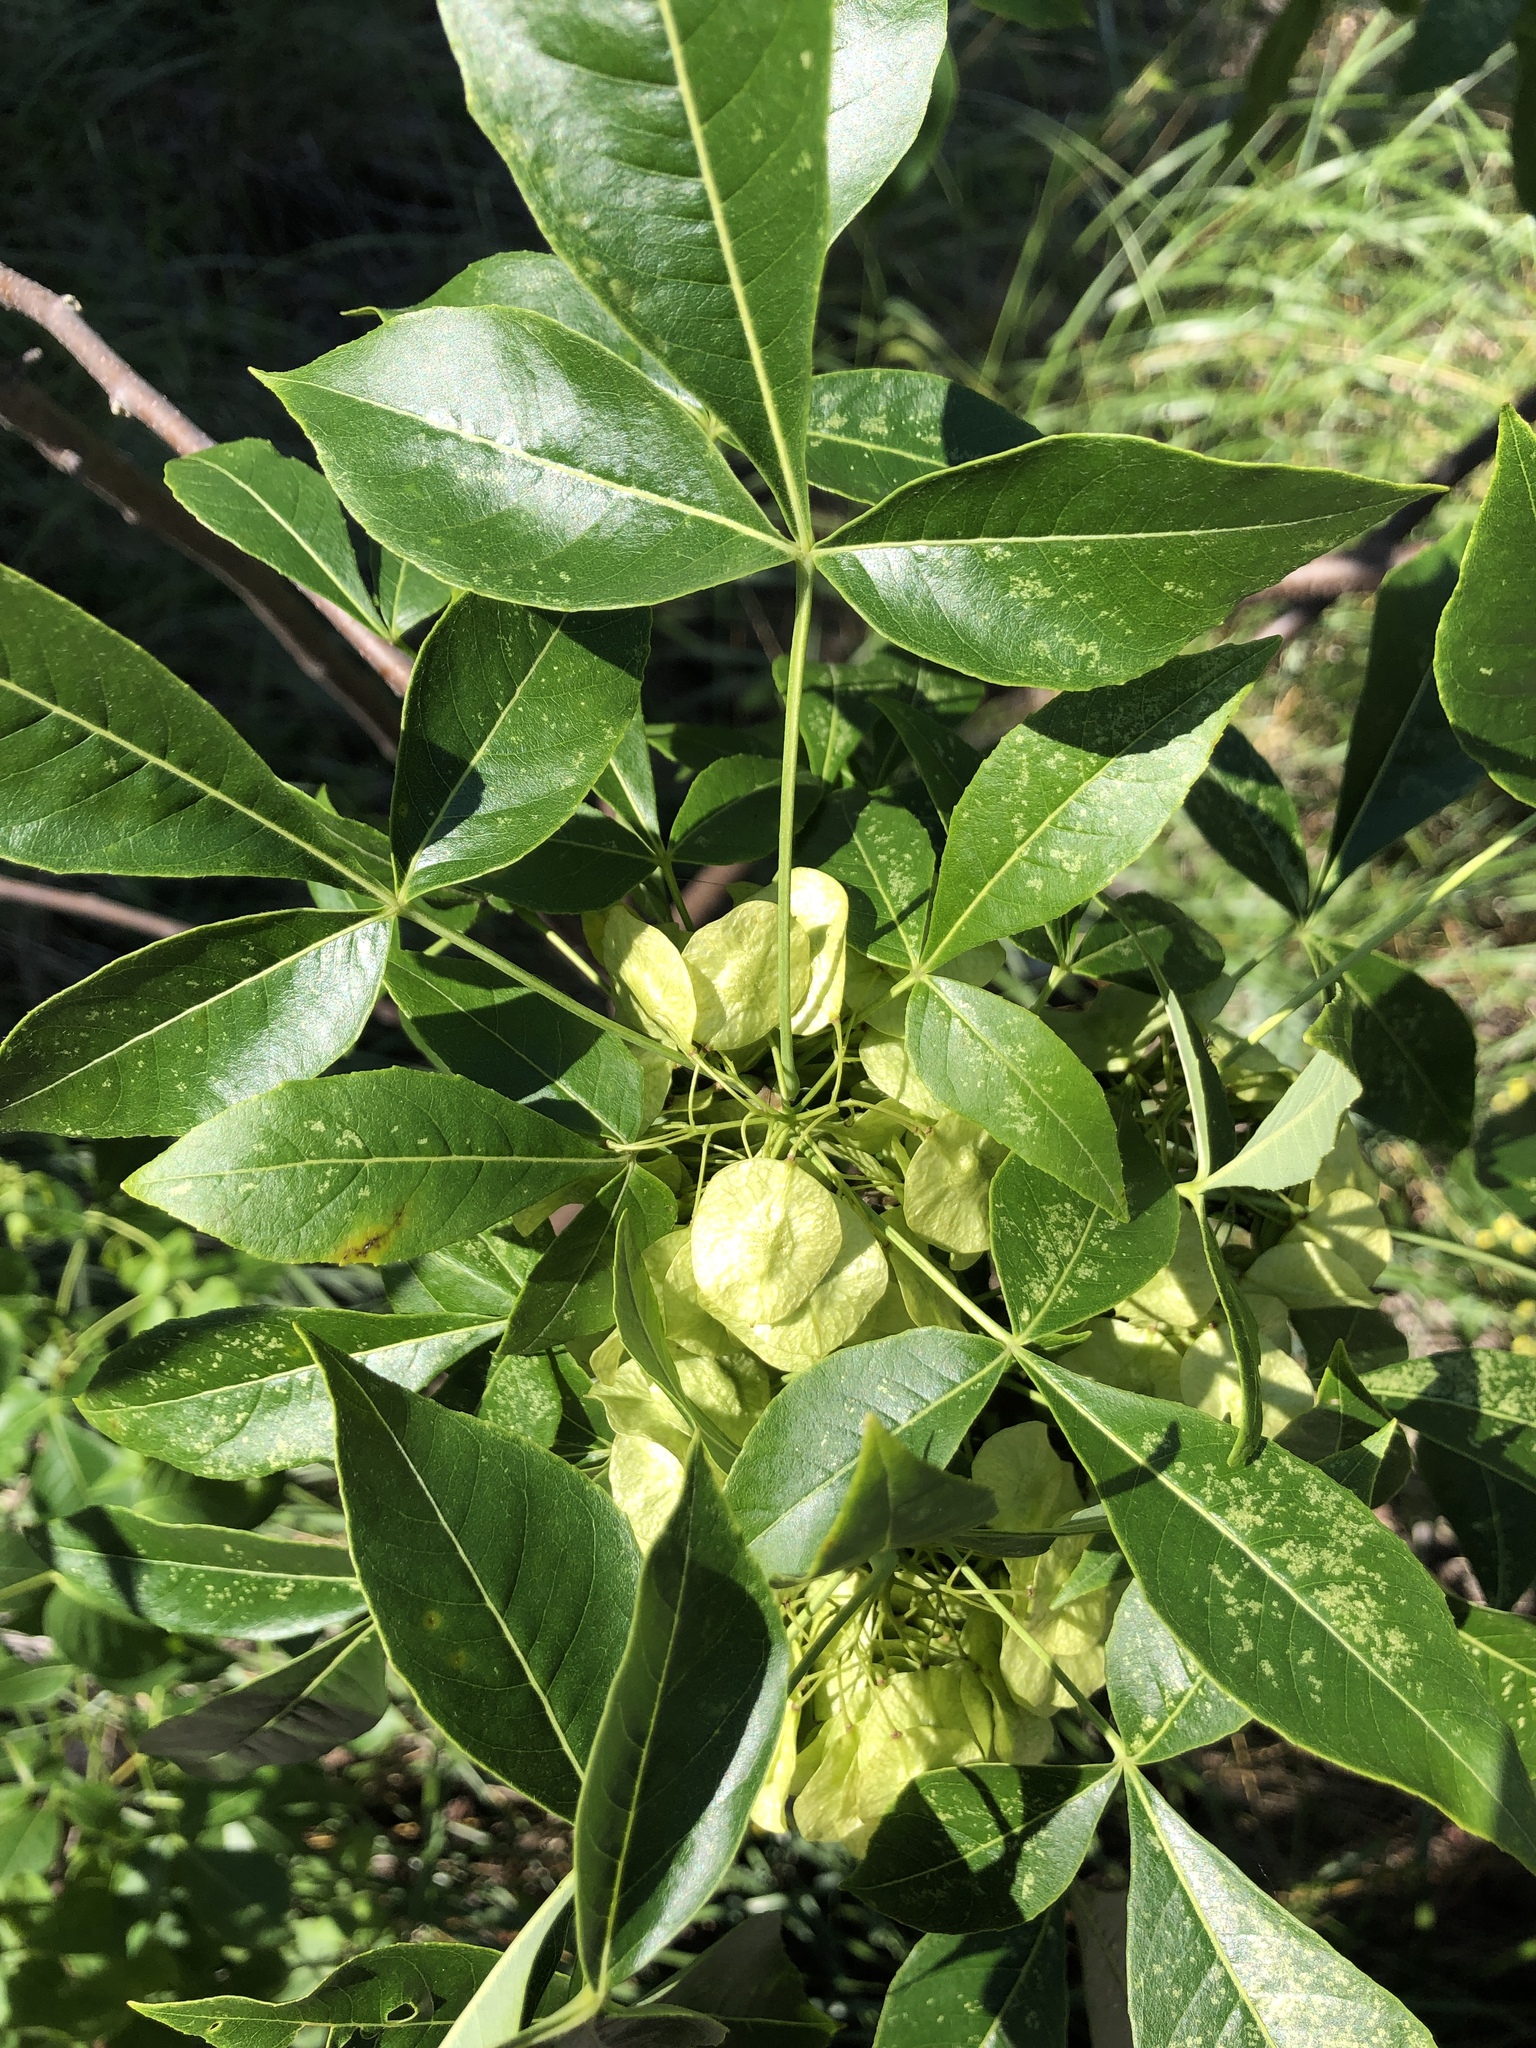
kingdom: Plantae
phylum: Tracheophyta
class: Magnoliopsida
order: Sapindales
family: Rutaceae
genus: Ptelea
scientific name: Ptelea trifoliata
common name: Common hop-tree
